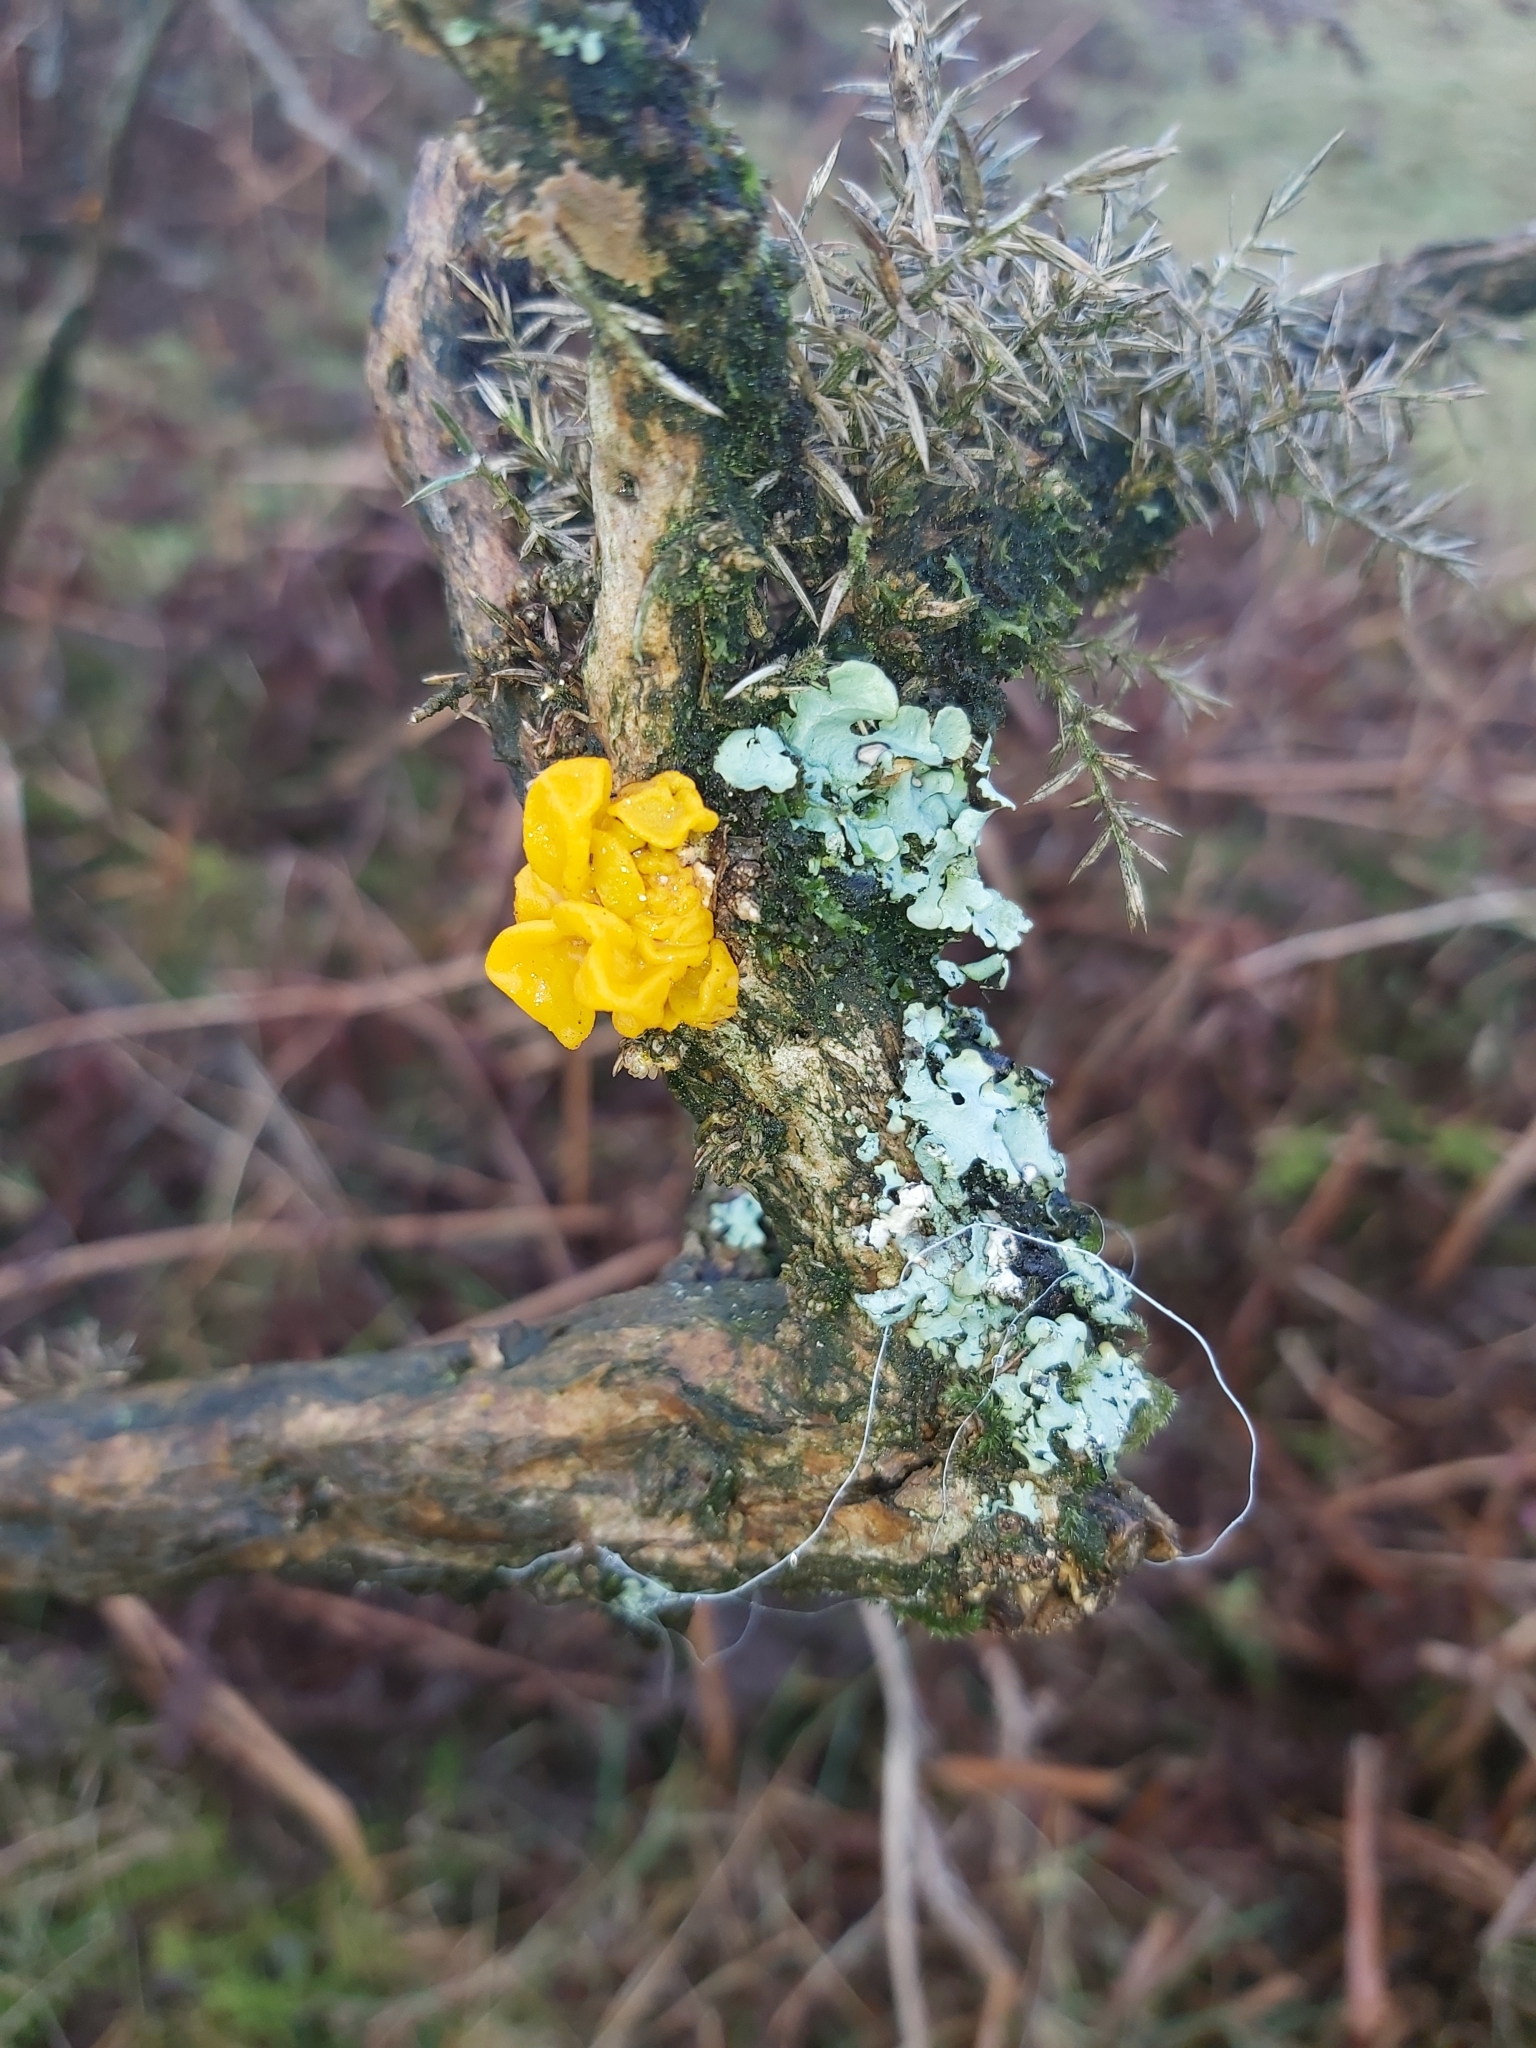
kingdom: Fungi
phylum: Basidiomycota
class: Tremellomycetes
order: Tremellales
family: Tremellaceae
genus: Tremella
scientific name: Tremella mesenterica
